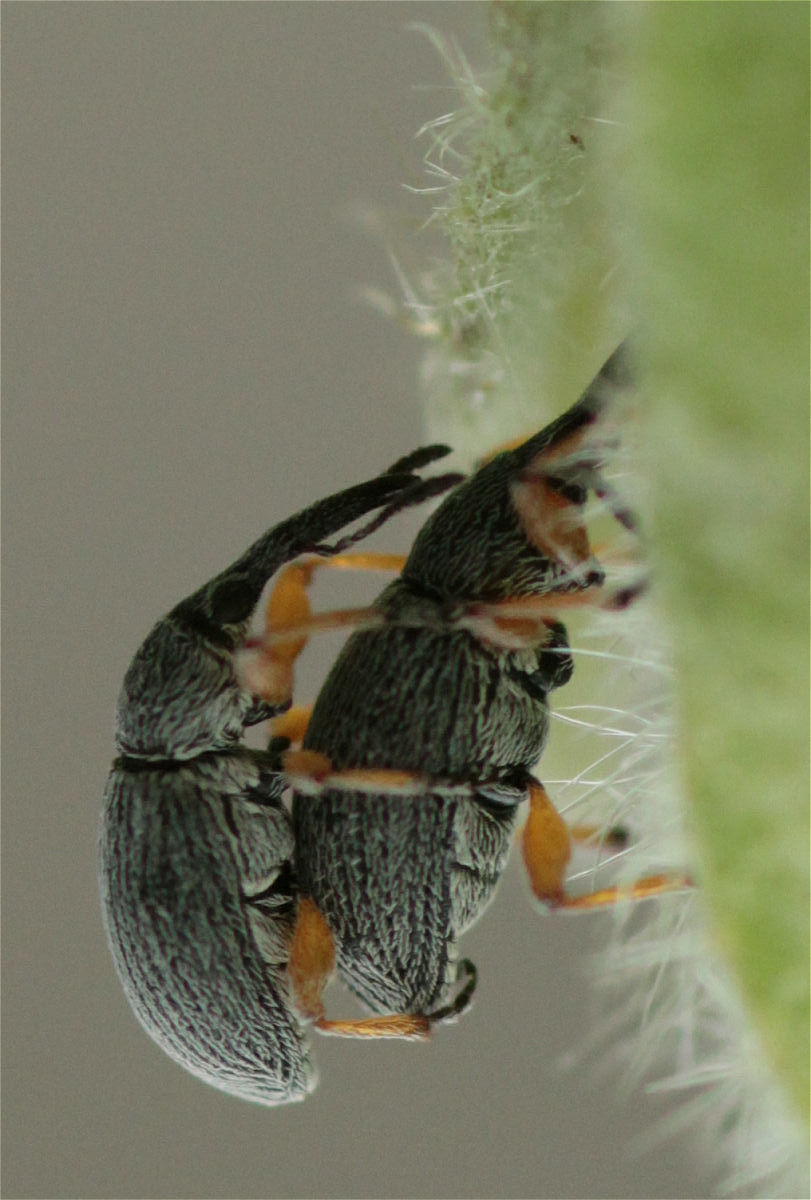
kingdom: Animalia
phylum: Arthropoda
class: Insecta
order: Coleoptera
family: Brentidae
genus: Rhopalapion
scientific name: Rhopalapion longirostre
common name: Hollyhock weevil
